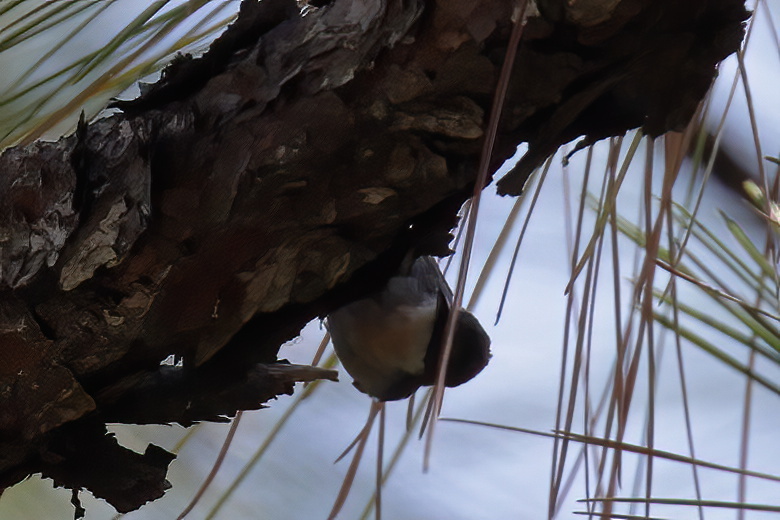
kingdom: Animalia
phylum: Chordata
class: Aves
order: Passeriformes
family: Sittidae
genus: Sitta
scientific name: Sitta pusilla
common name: Brown-headed nuthatch
